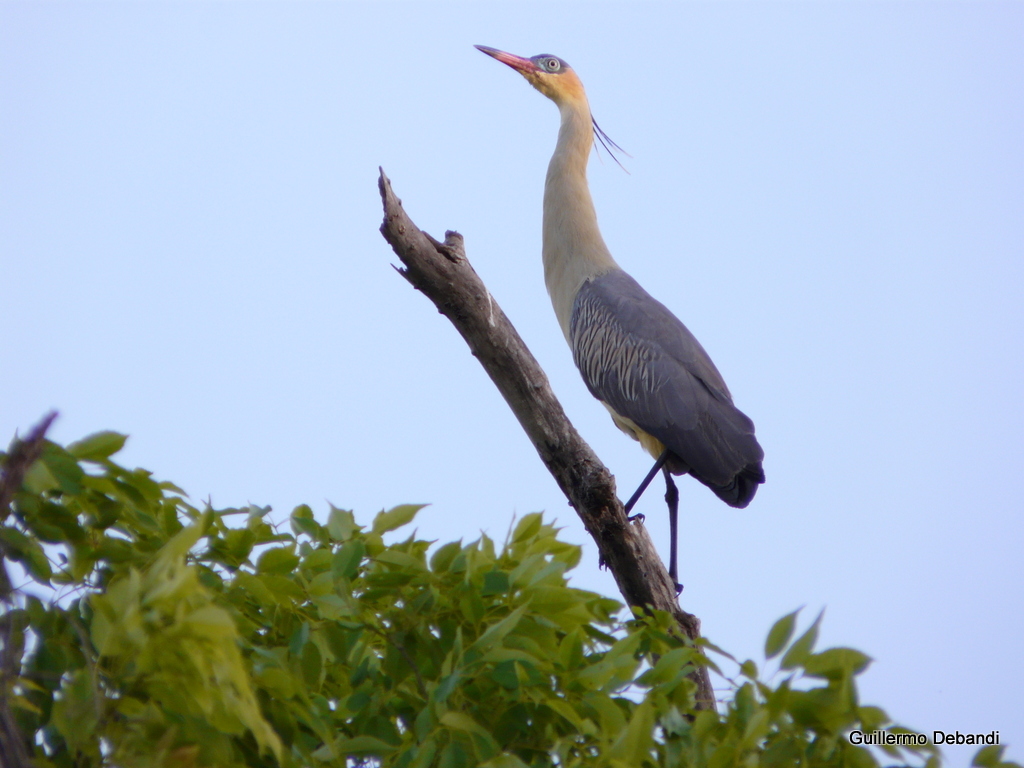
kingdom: Animalia
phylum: Chordata
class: Aves
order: Pelecaniformes
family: Ardeidae
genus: Syrigma
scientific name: Syrigma sibilatrix
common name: Whistling heron
